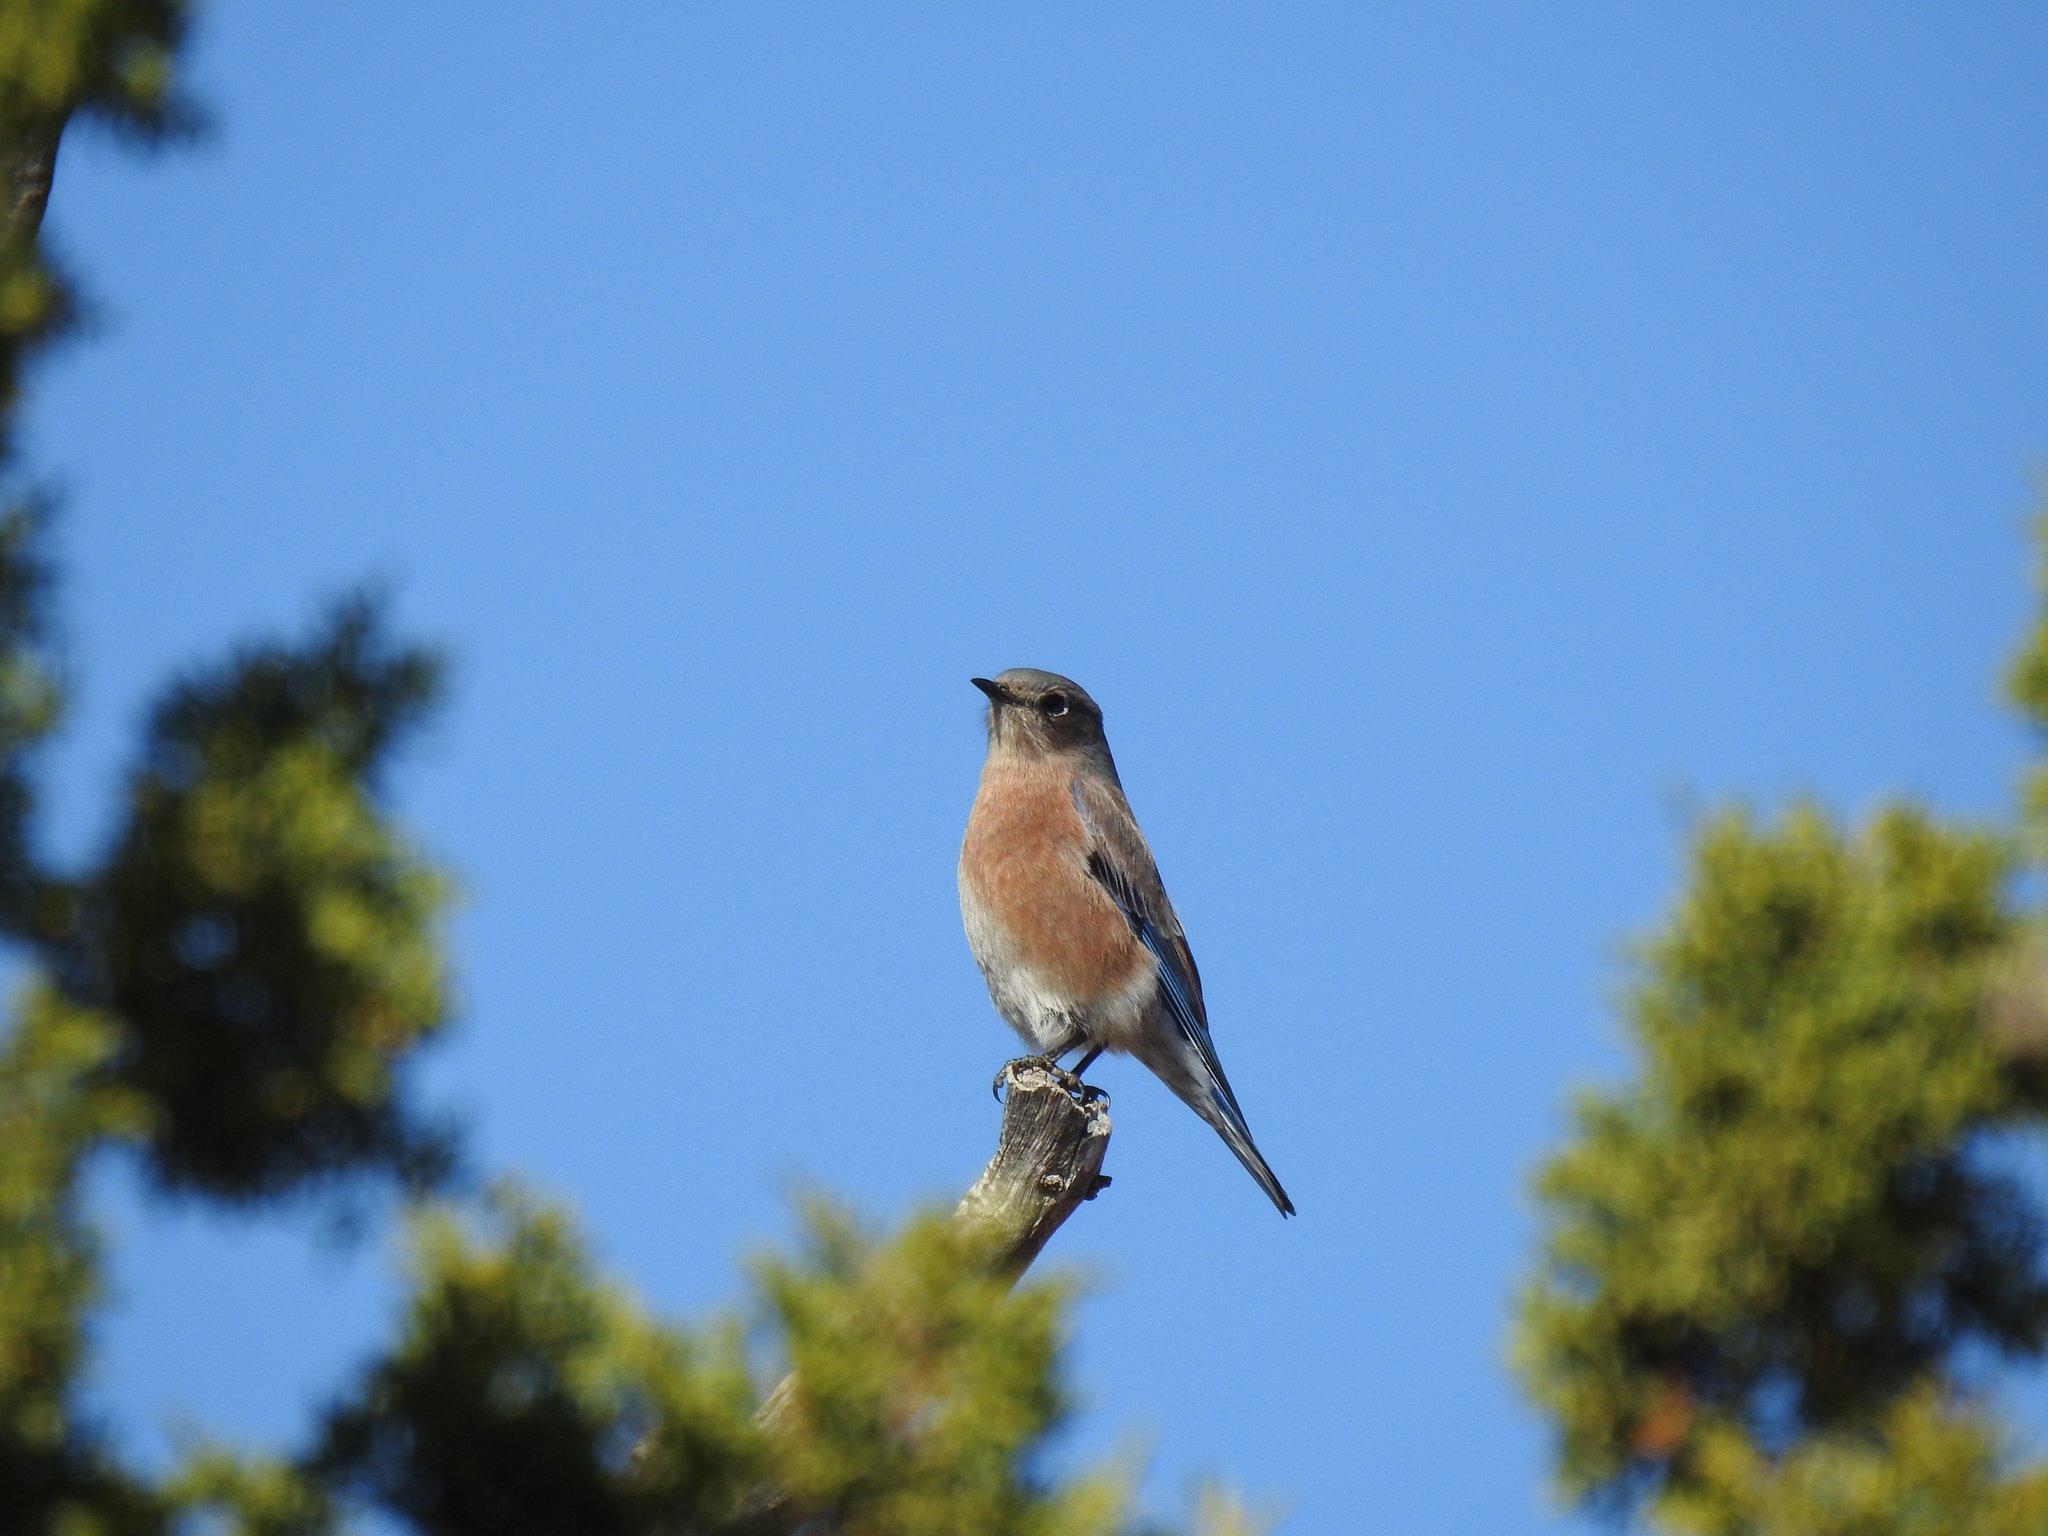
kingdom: Animalia
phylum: Chordata
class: Aves
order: Passeriformes
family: Turdidae
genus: Sialia
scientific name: Sialia mexicana
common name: Western bluebird
